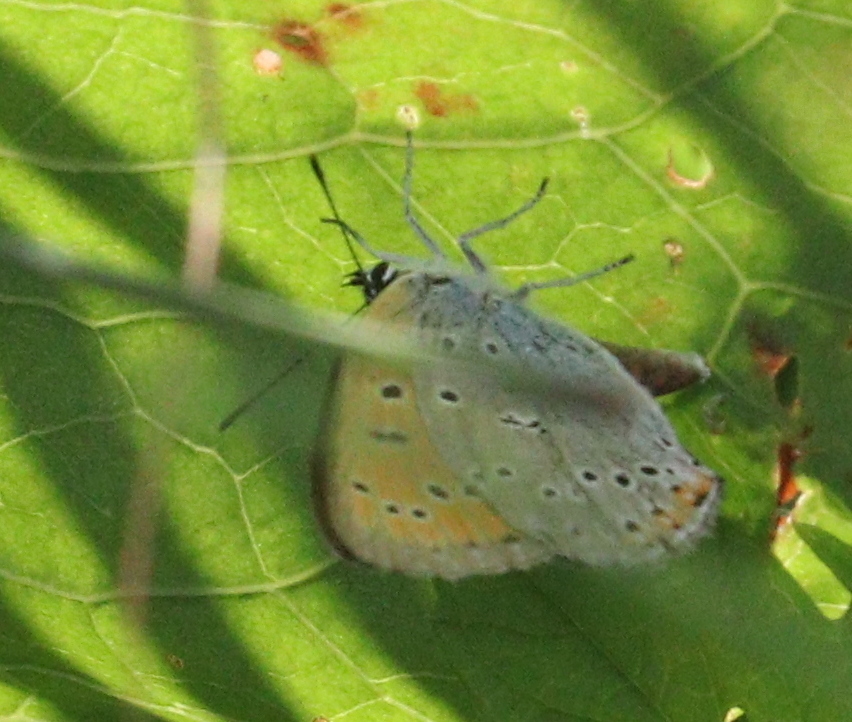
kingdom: Animalia
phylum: Arthropoda
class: Insecta
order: Lepidoptera
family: Lycaenidae
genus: Lycaena
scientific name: Lycaena dispar
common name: Large copper
